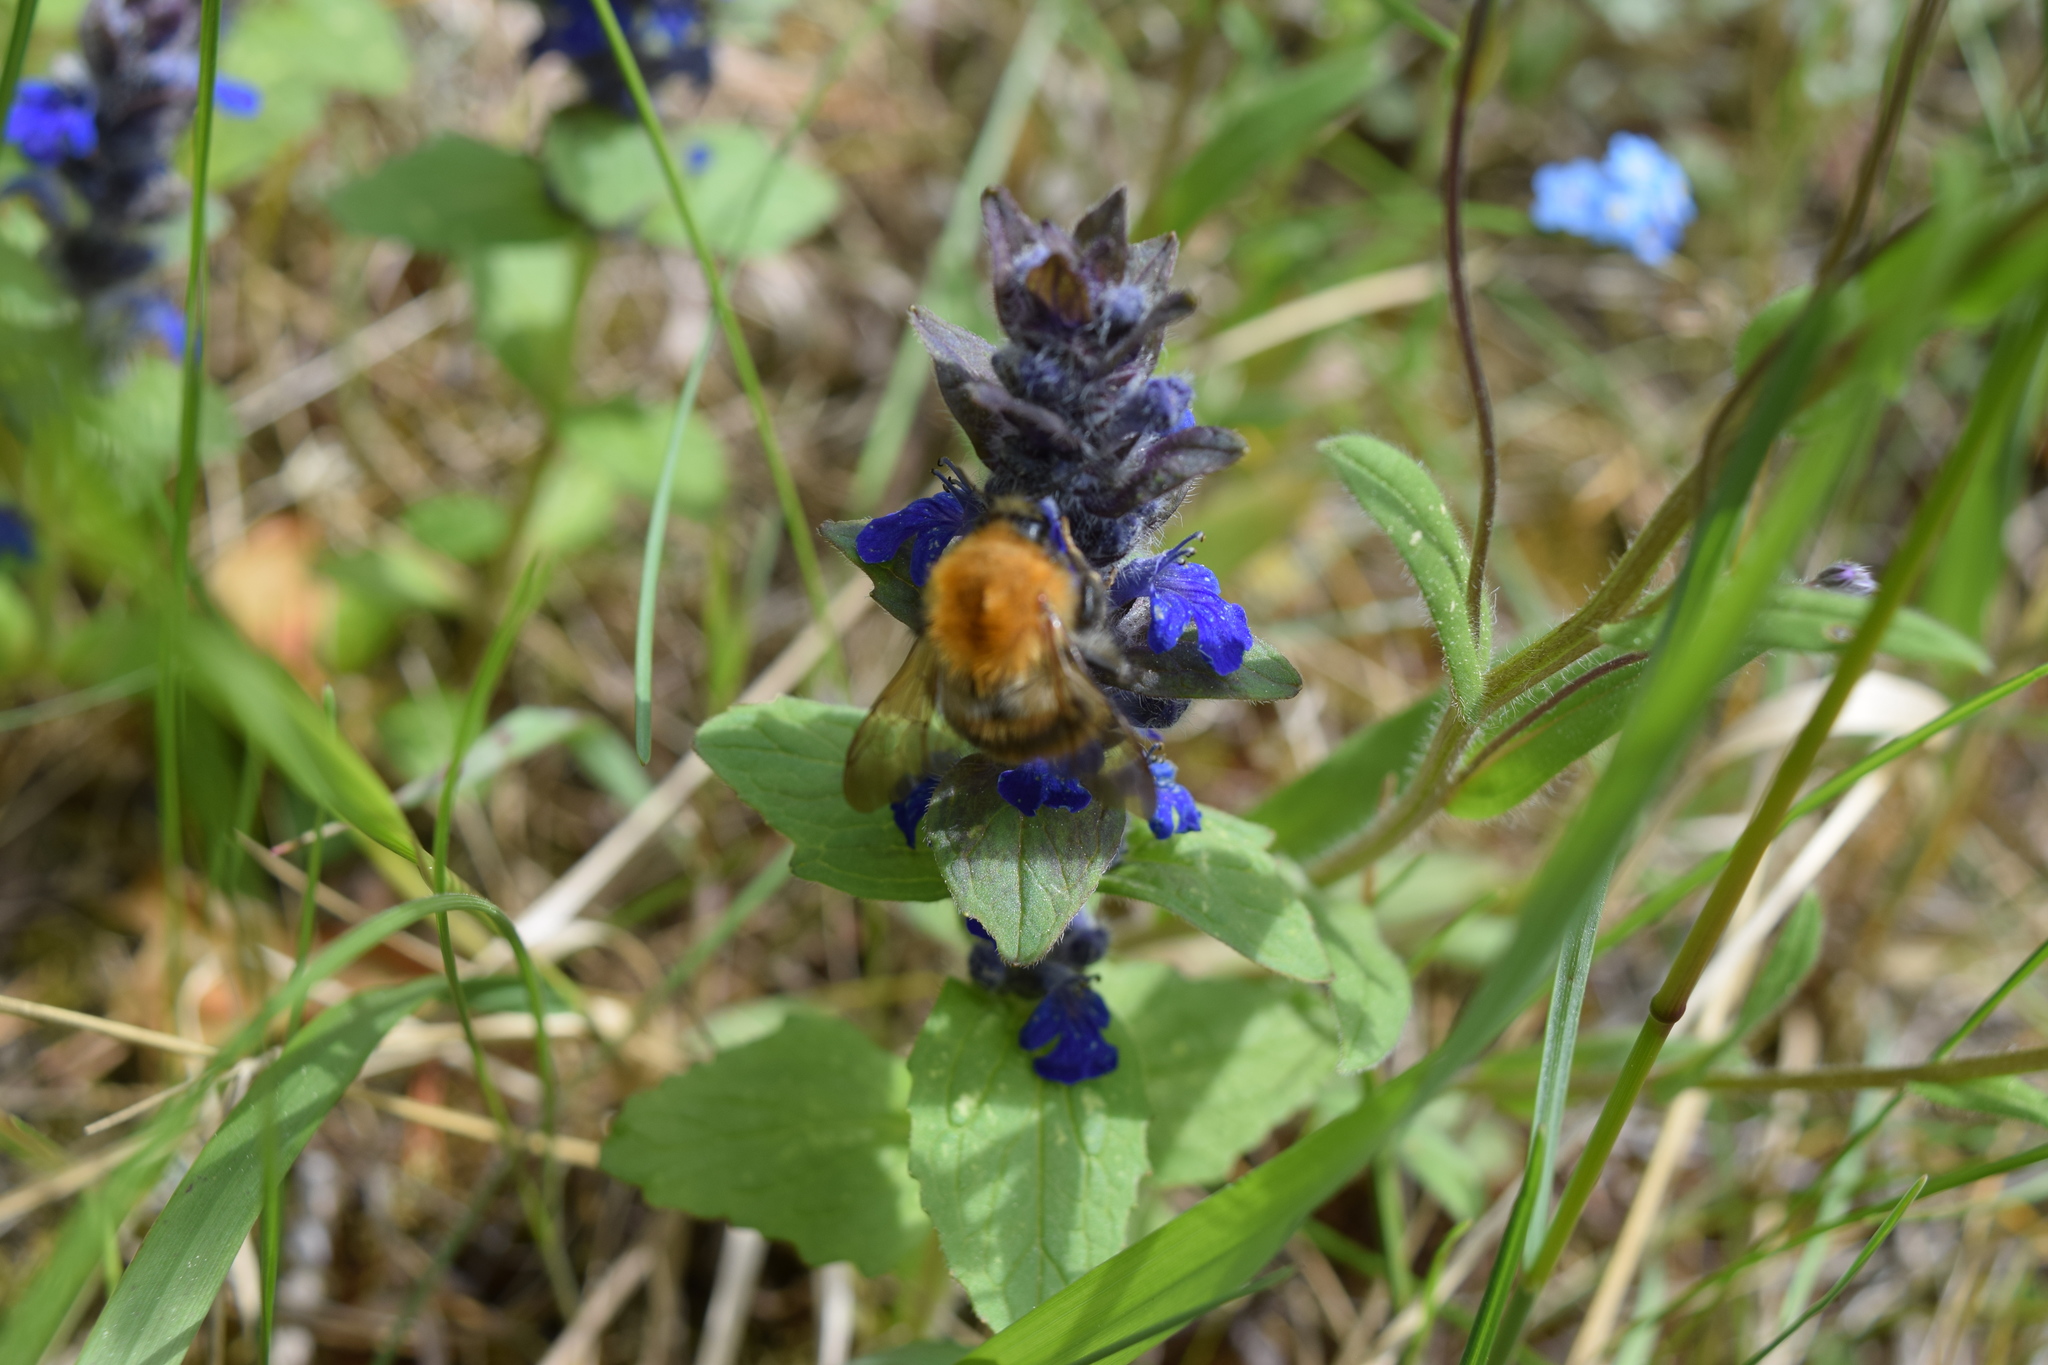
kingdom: Animalia
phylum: Arthropoda
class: Insecta
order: Hymenoptera
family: Apidae
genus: Bombus
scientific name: Bombus pascuorum
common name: Common carder bee
